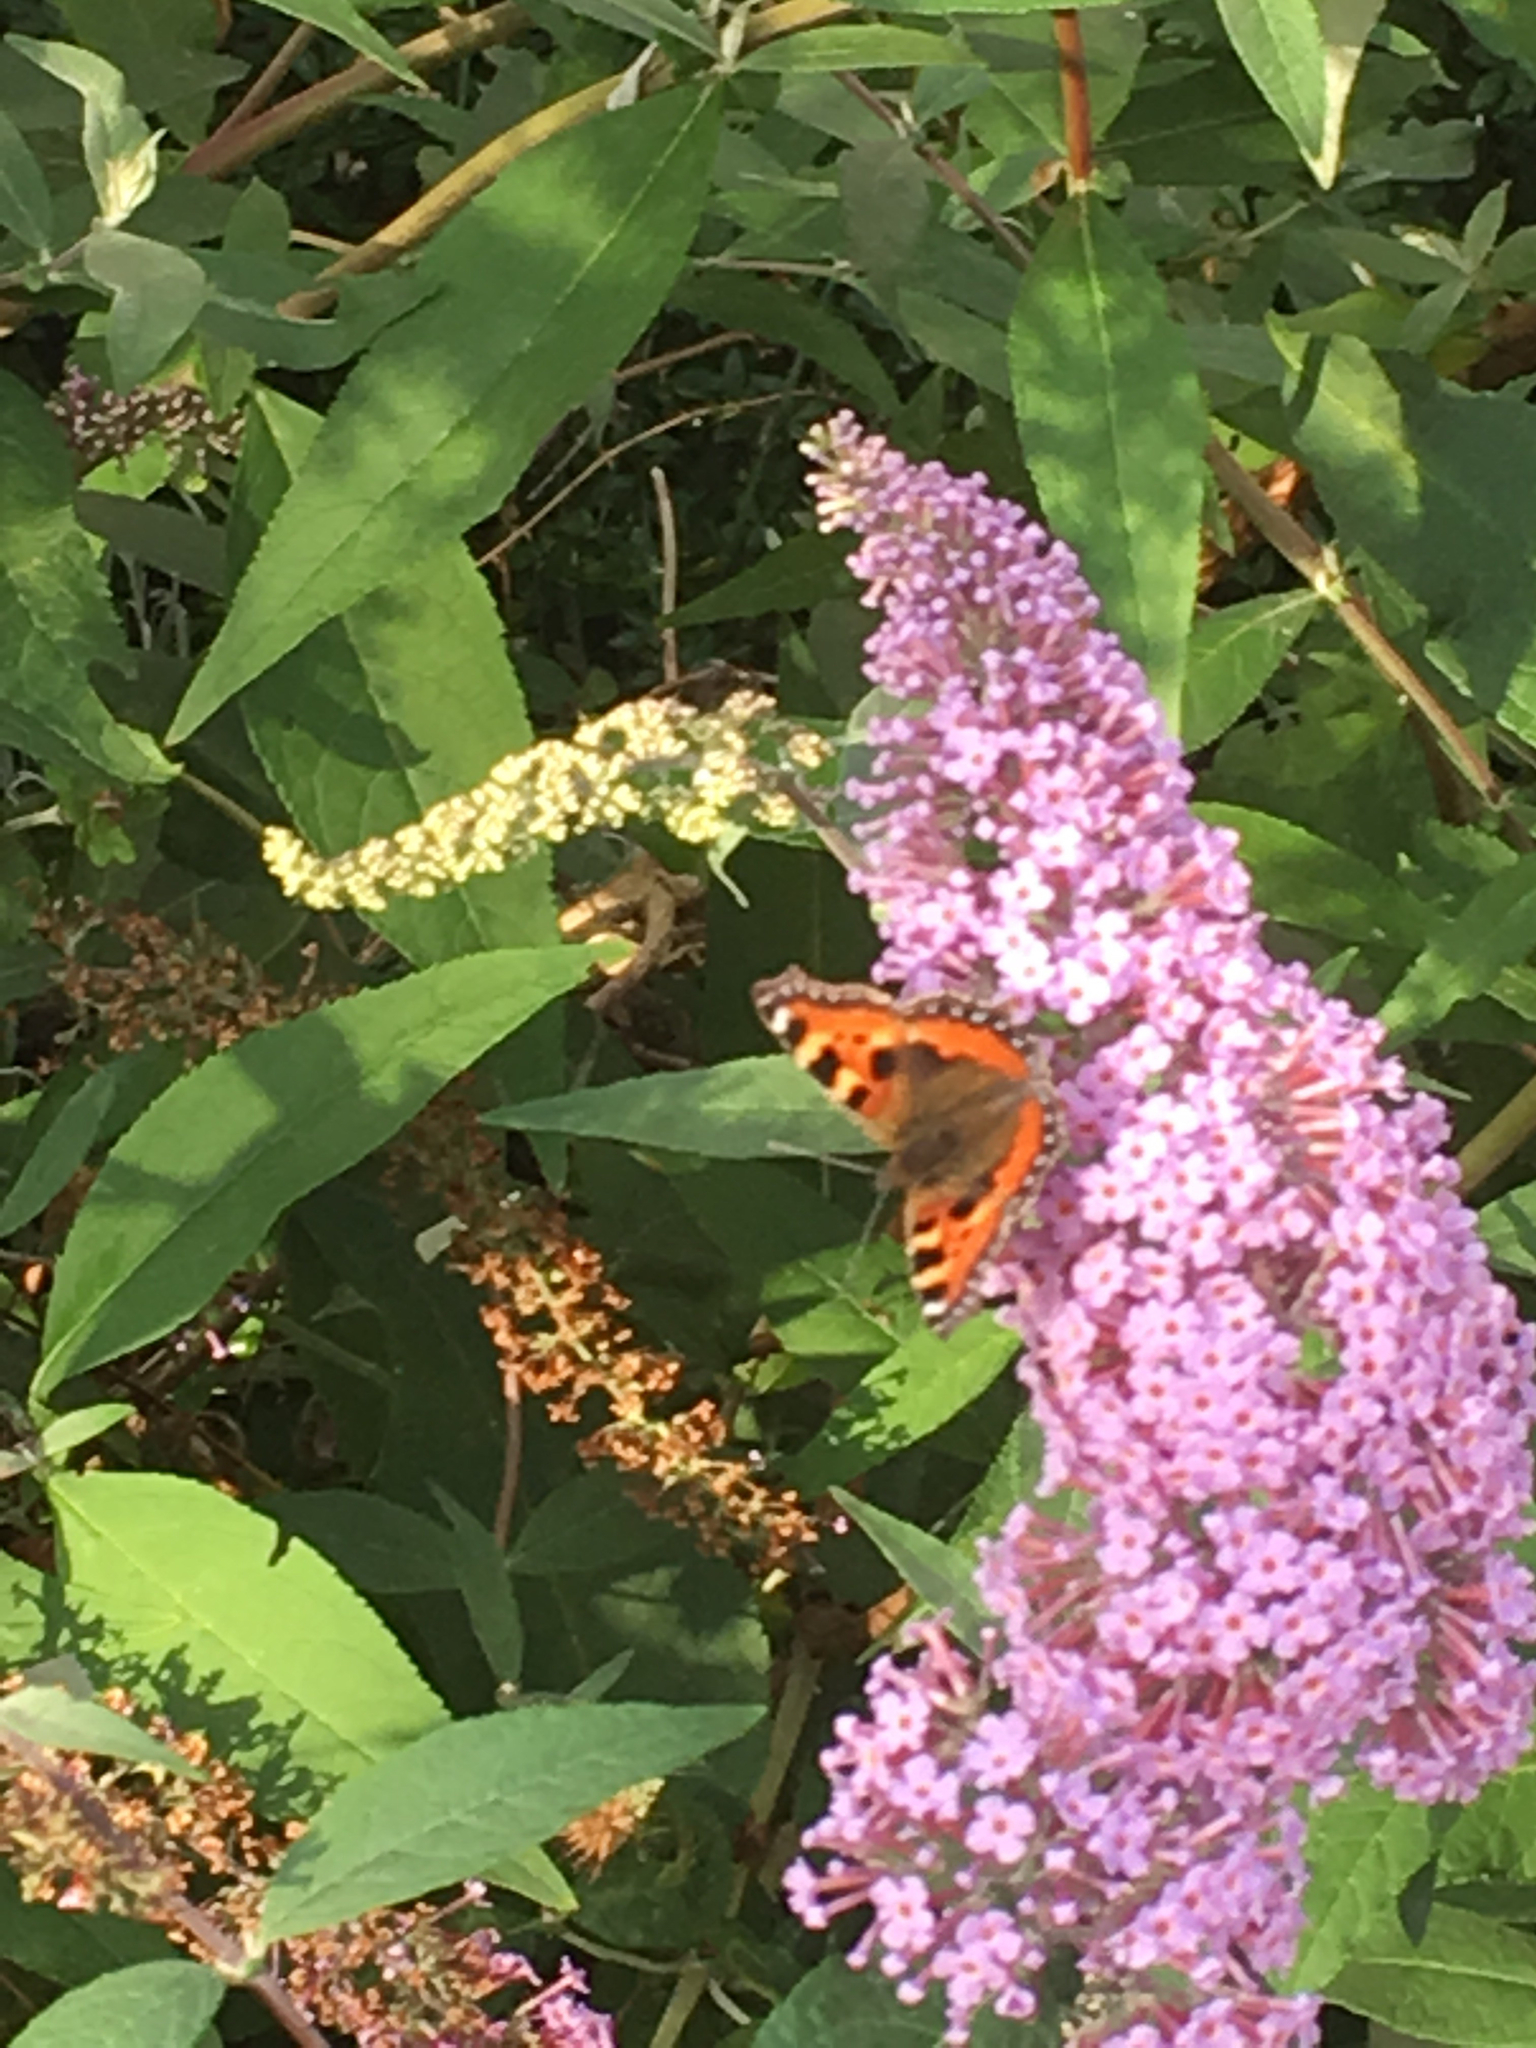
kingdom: Animalia
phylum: Arthropoda
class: Insecta
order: Lepidoptera
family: Nymphalidae
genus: Aglais
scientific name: Aglais urticae
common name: Small tortoiseshell
